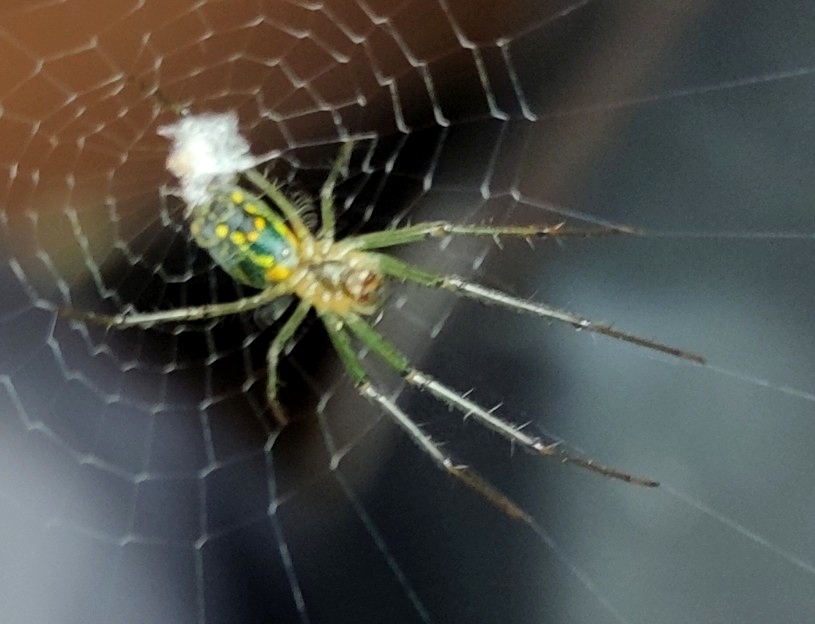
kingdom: Animalia
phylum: Arthropoda
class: Arachnida
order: Araneae
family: Tetragnathidae
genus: Leucauge
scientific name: Leucauge venusta
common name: Longjawed orb weavers
